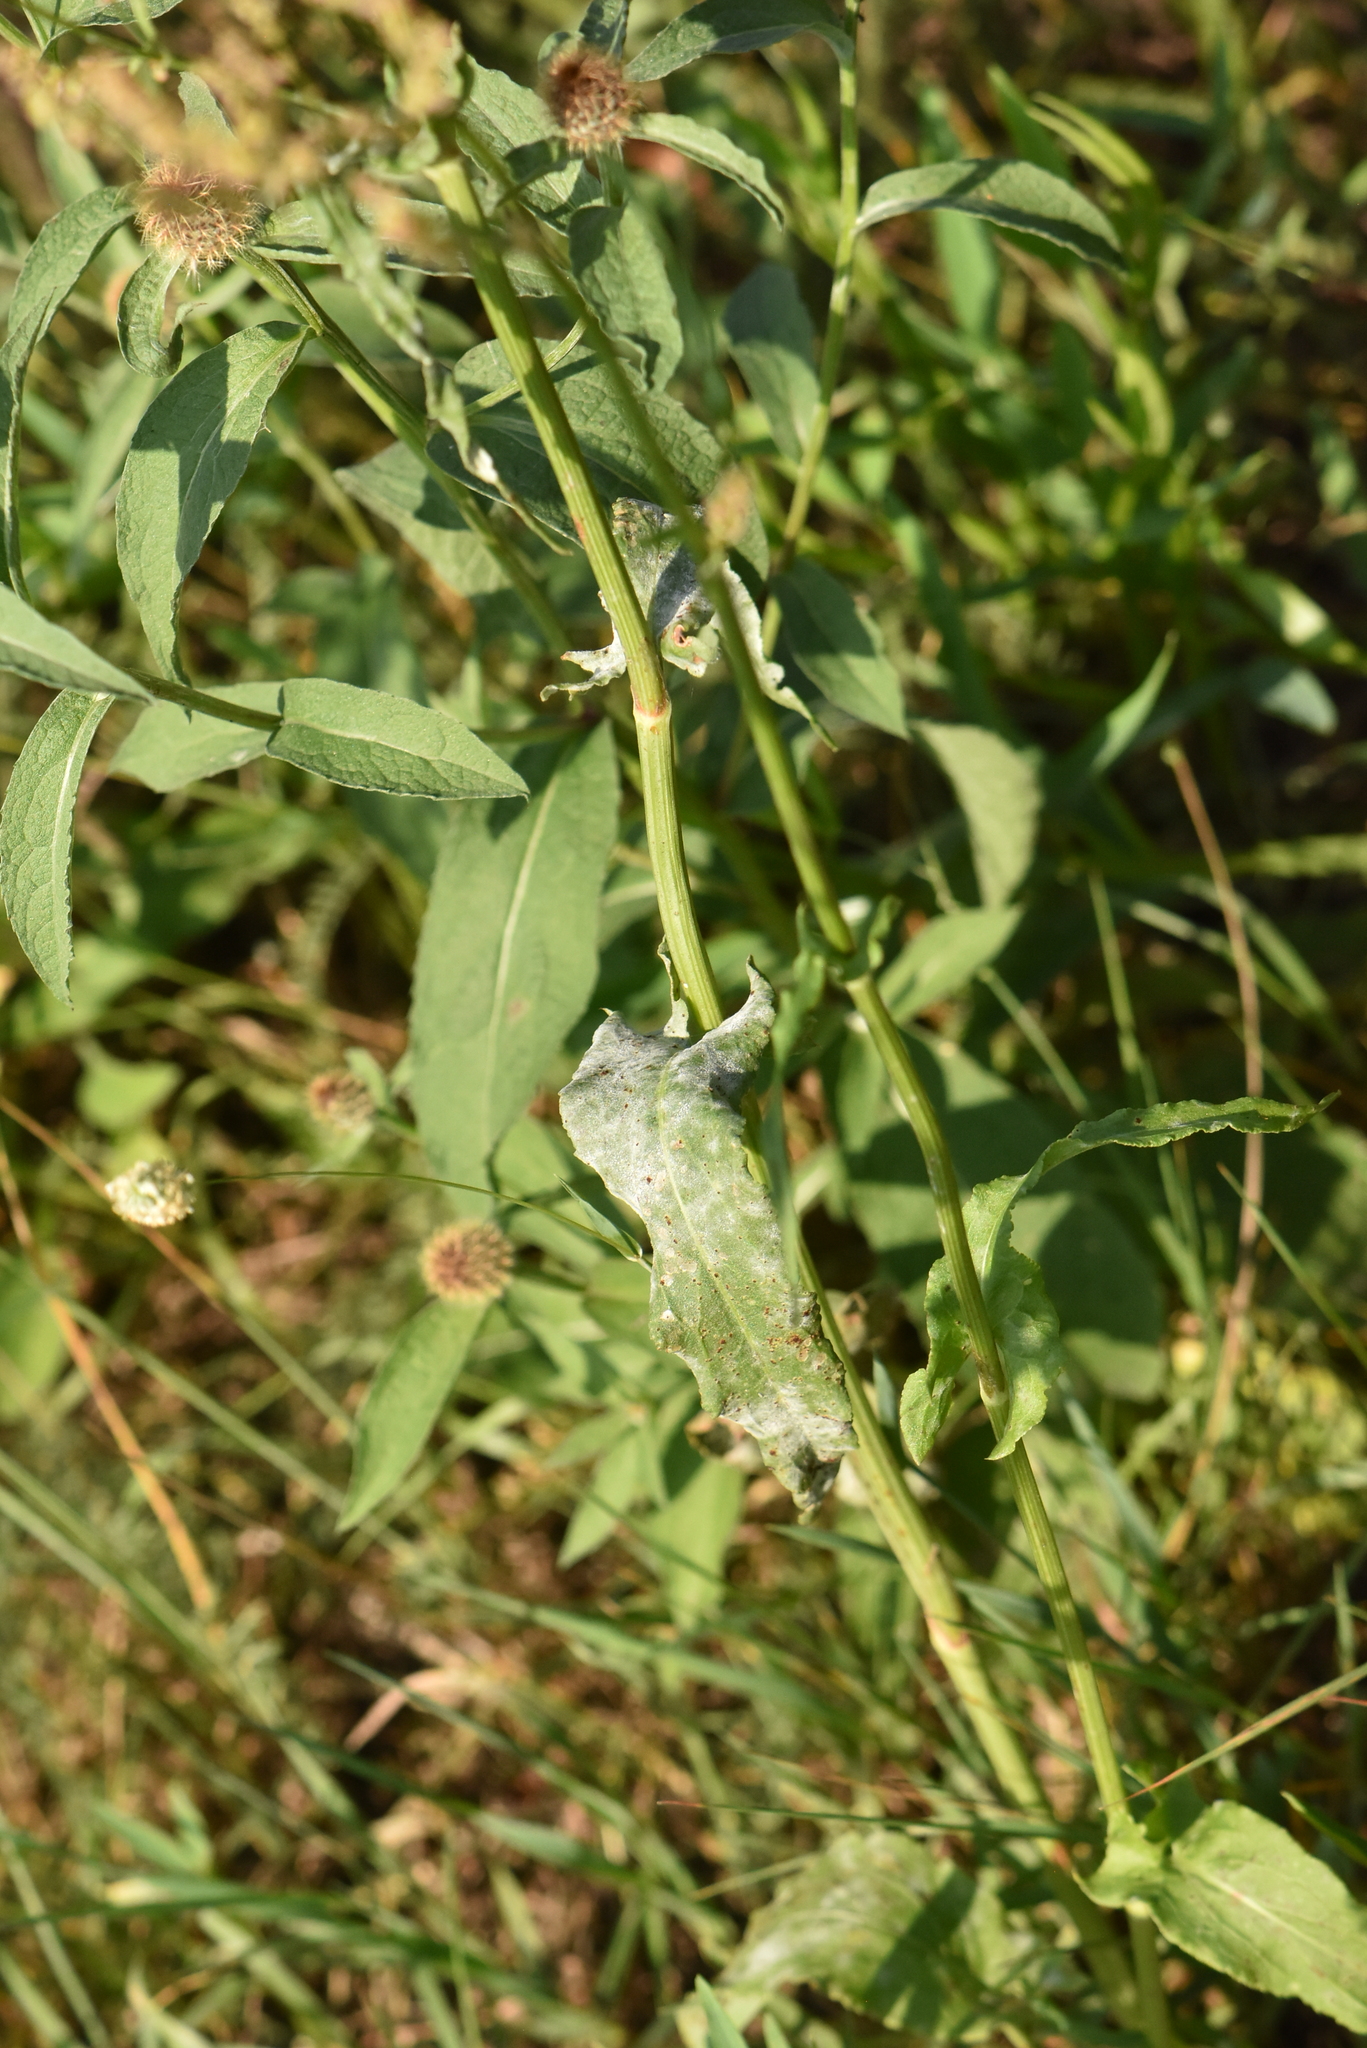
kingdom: Plantae
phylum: Tracheophyta
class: Magnoliopsida
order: Caryophyllales
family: Polygonaceae
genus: Rumex
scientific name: Rumex thyrsiflorus
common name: Garden sorrel
